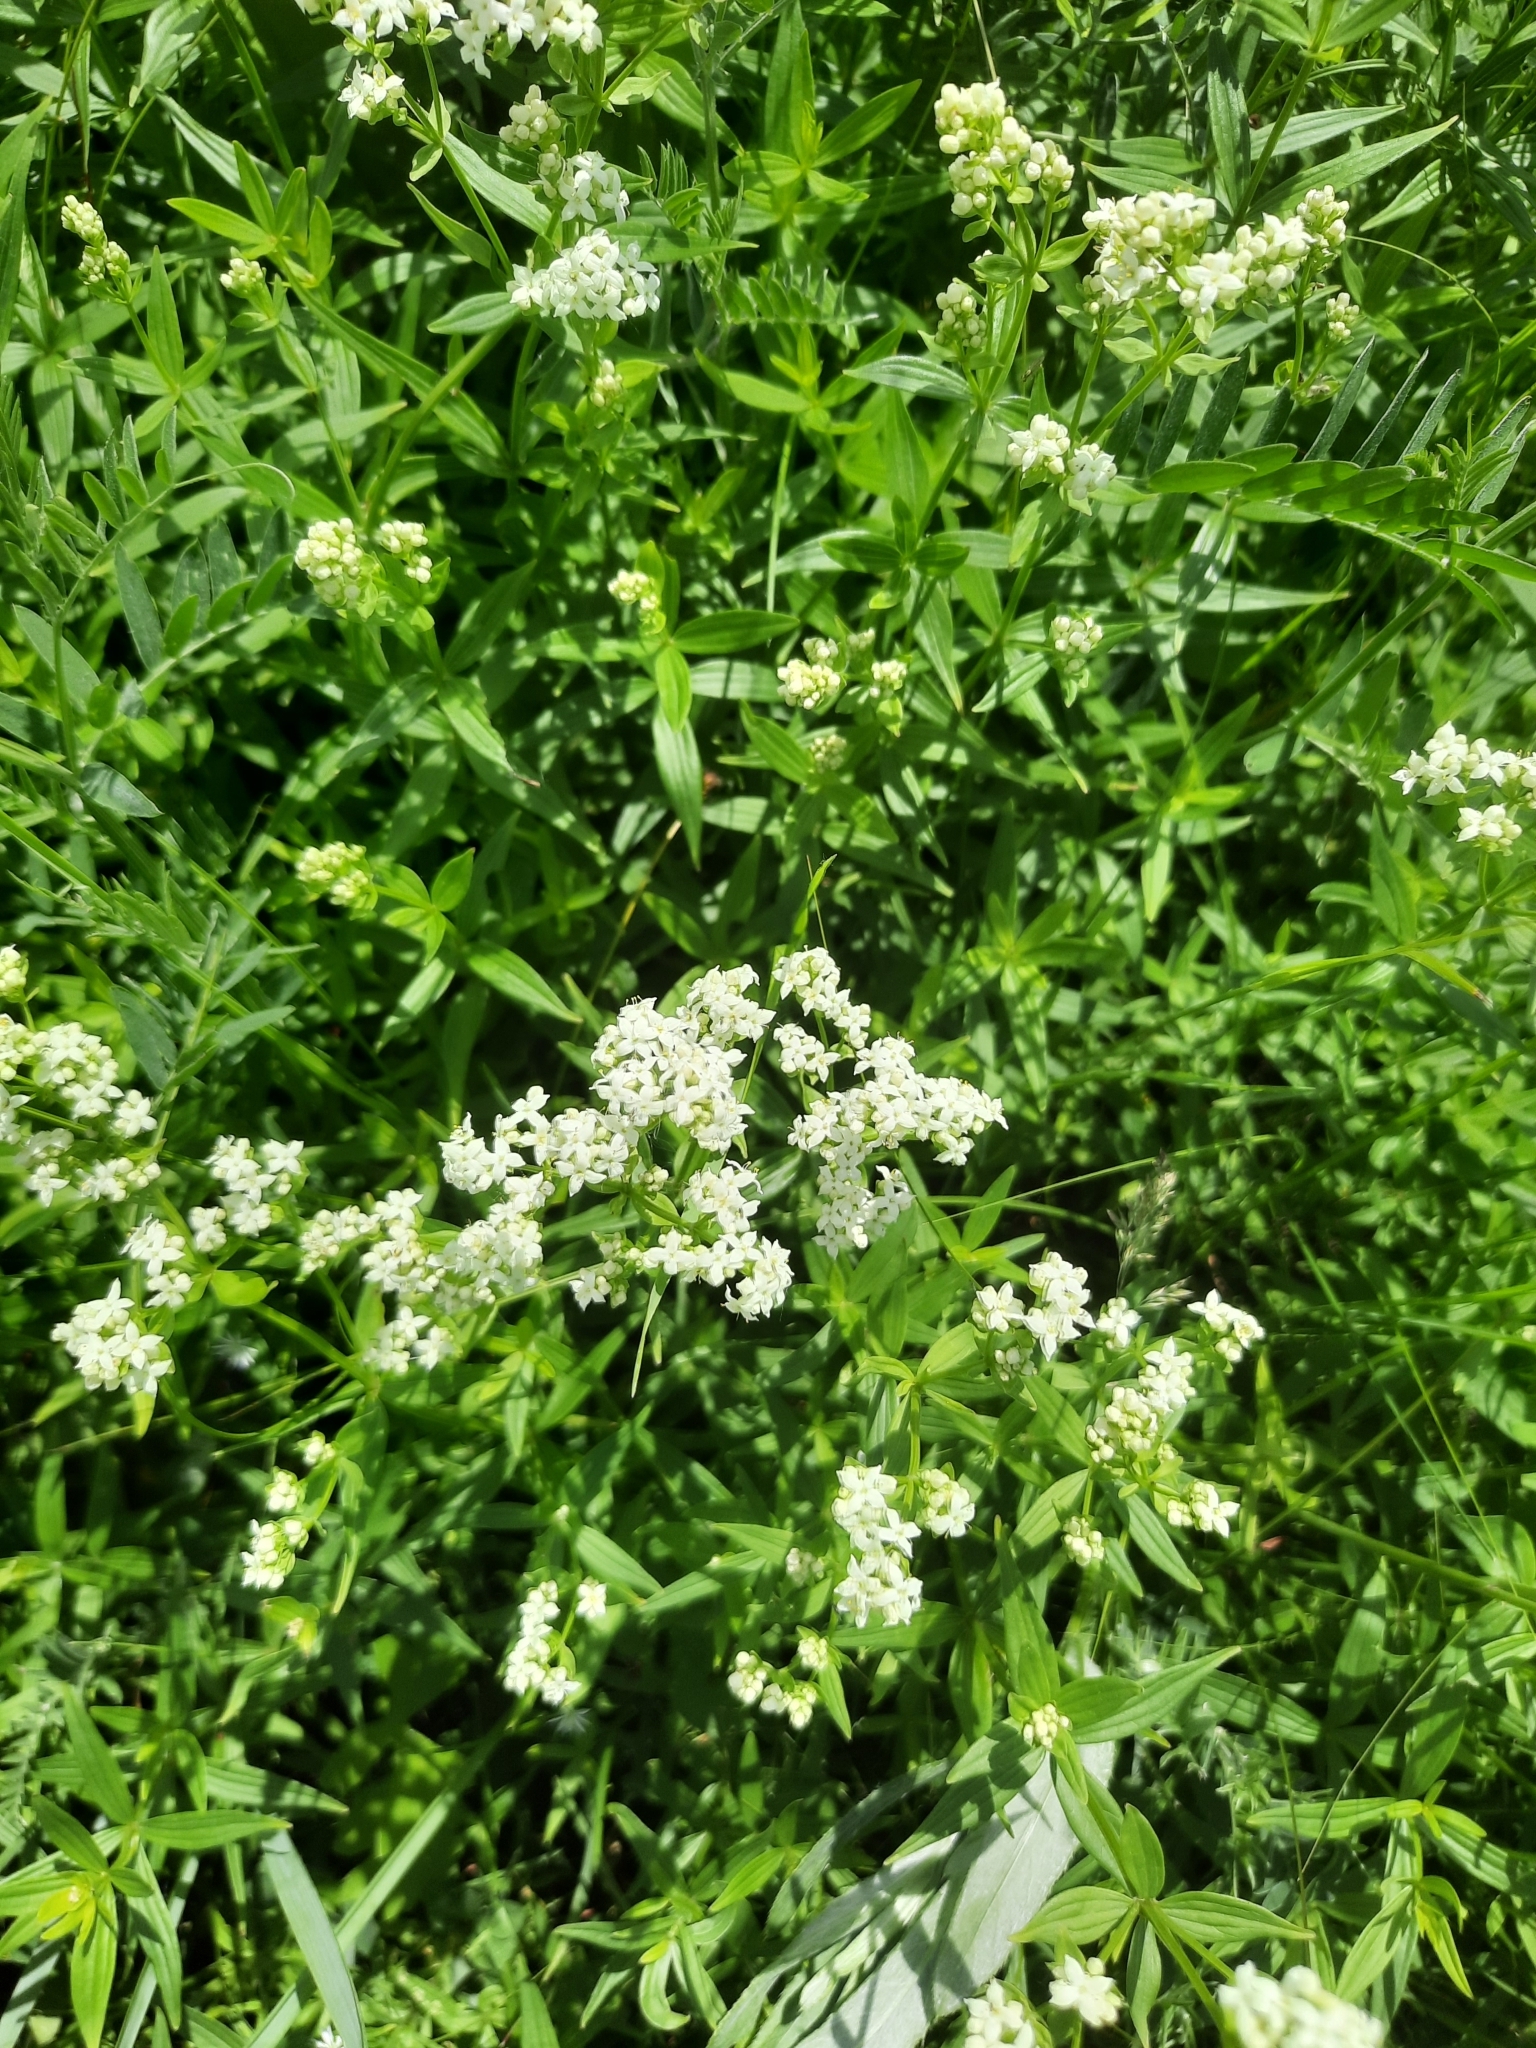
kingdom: Plantae
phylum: Tracheophyta
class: Magnoliopsida
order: Gentianales
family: Rubiaceae
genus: Galium
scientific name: Galium boreale
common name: Northern bedstraw
